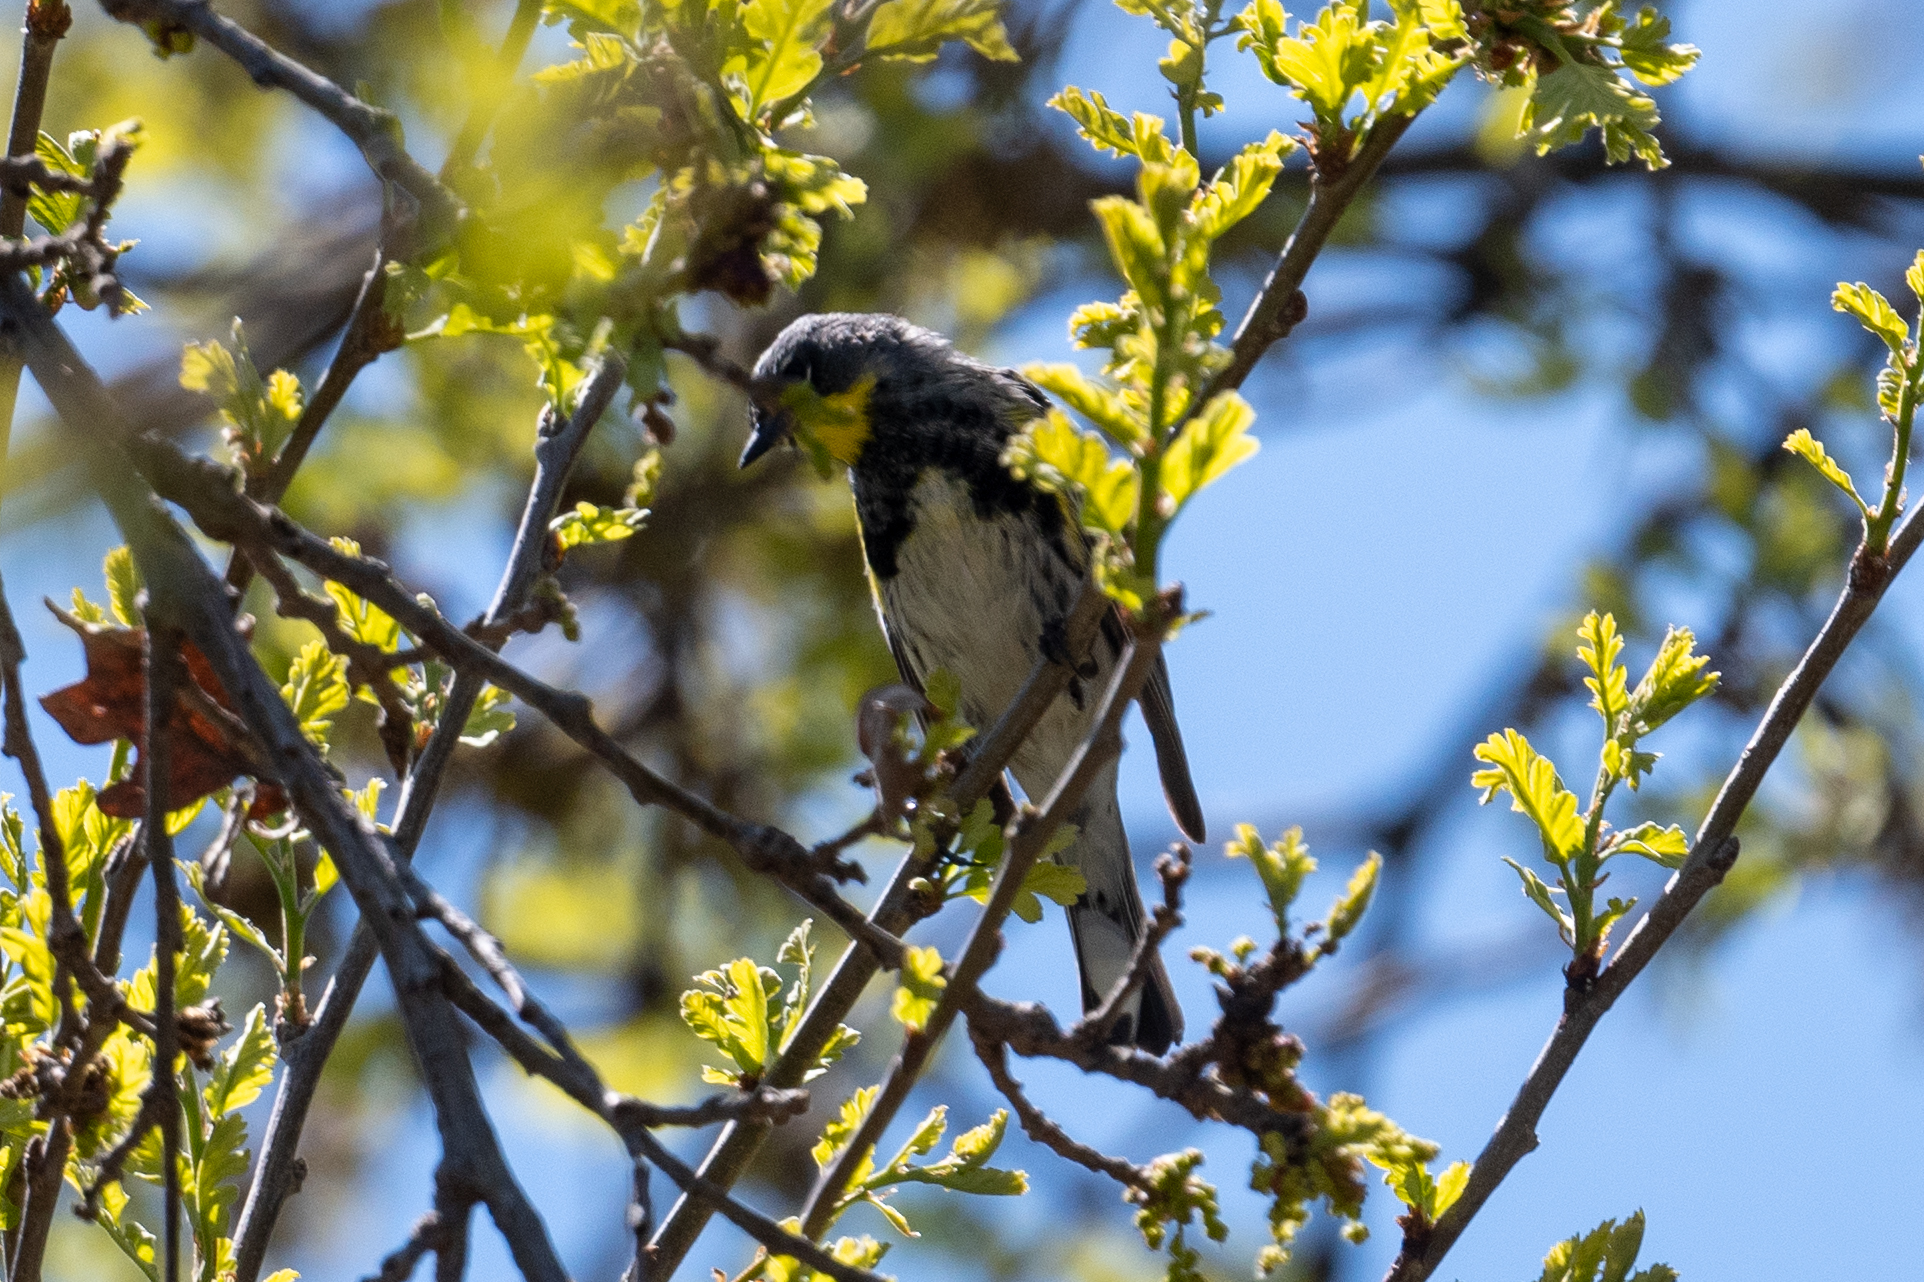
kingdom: Animalia
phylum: Chordata
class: Aves
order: Passeriformes
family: Parulidae
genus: Setophaga
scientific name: Setophaga coronata
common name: Myrtle warbler
